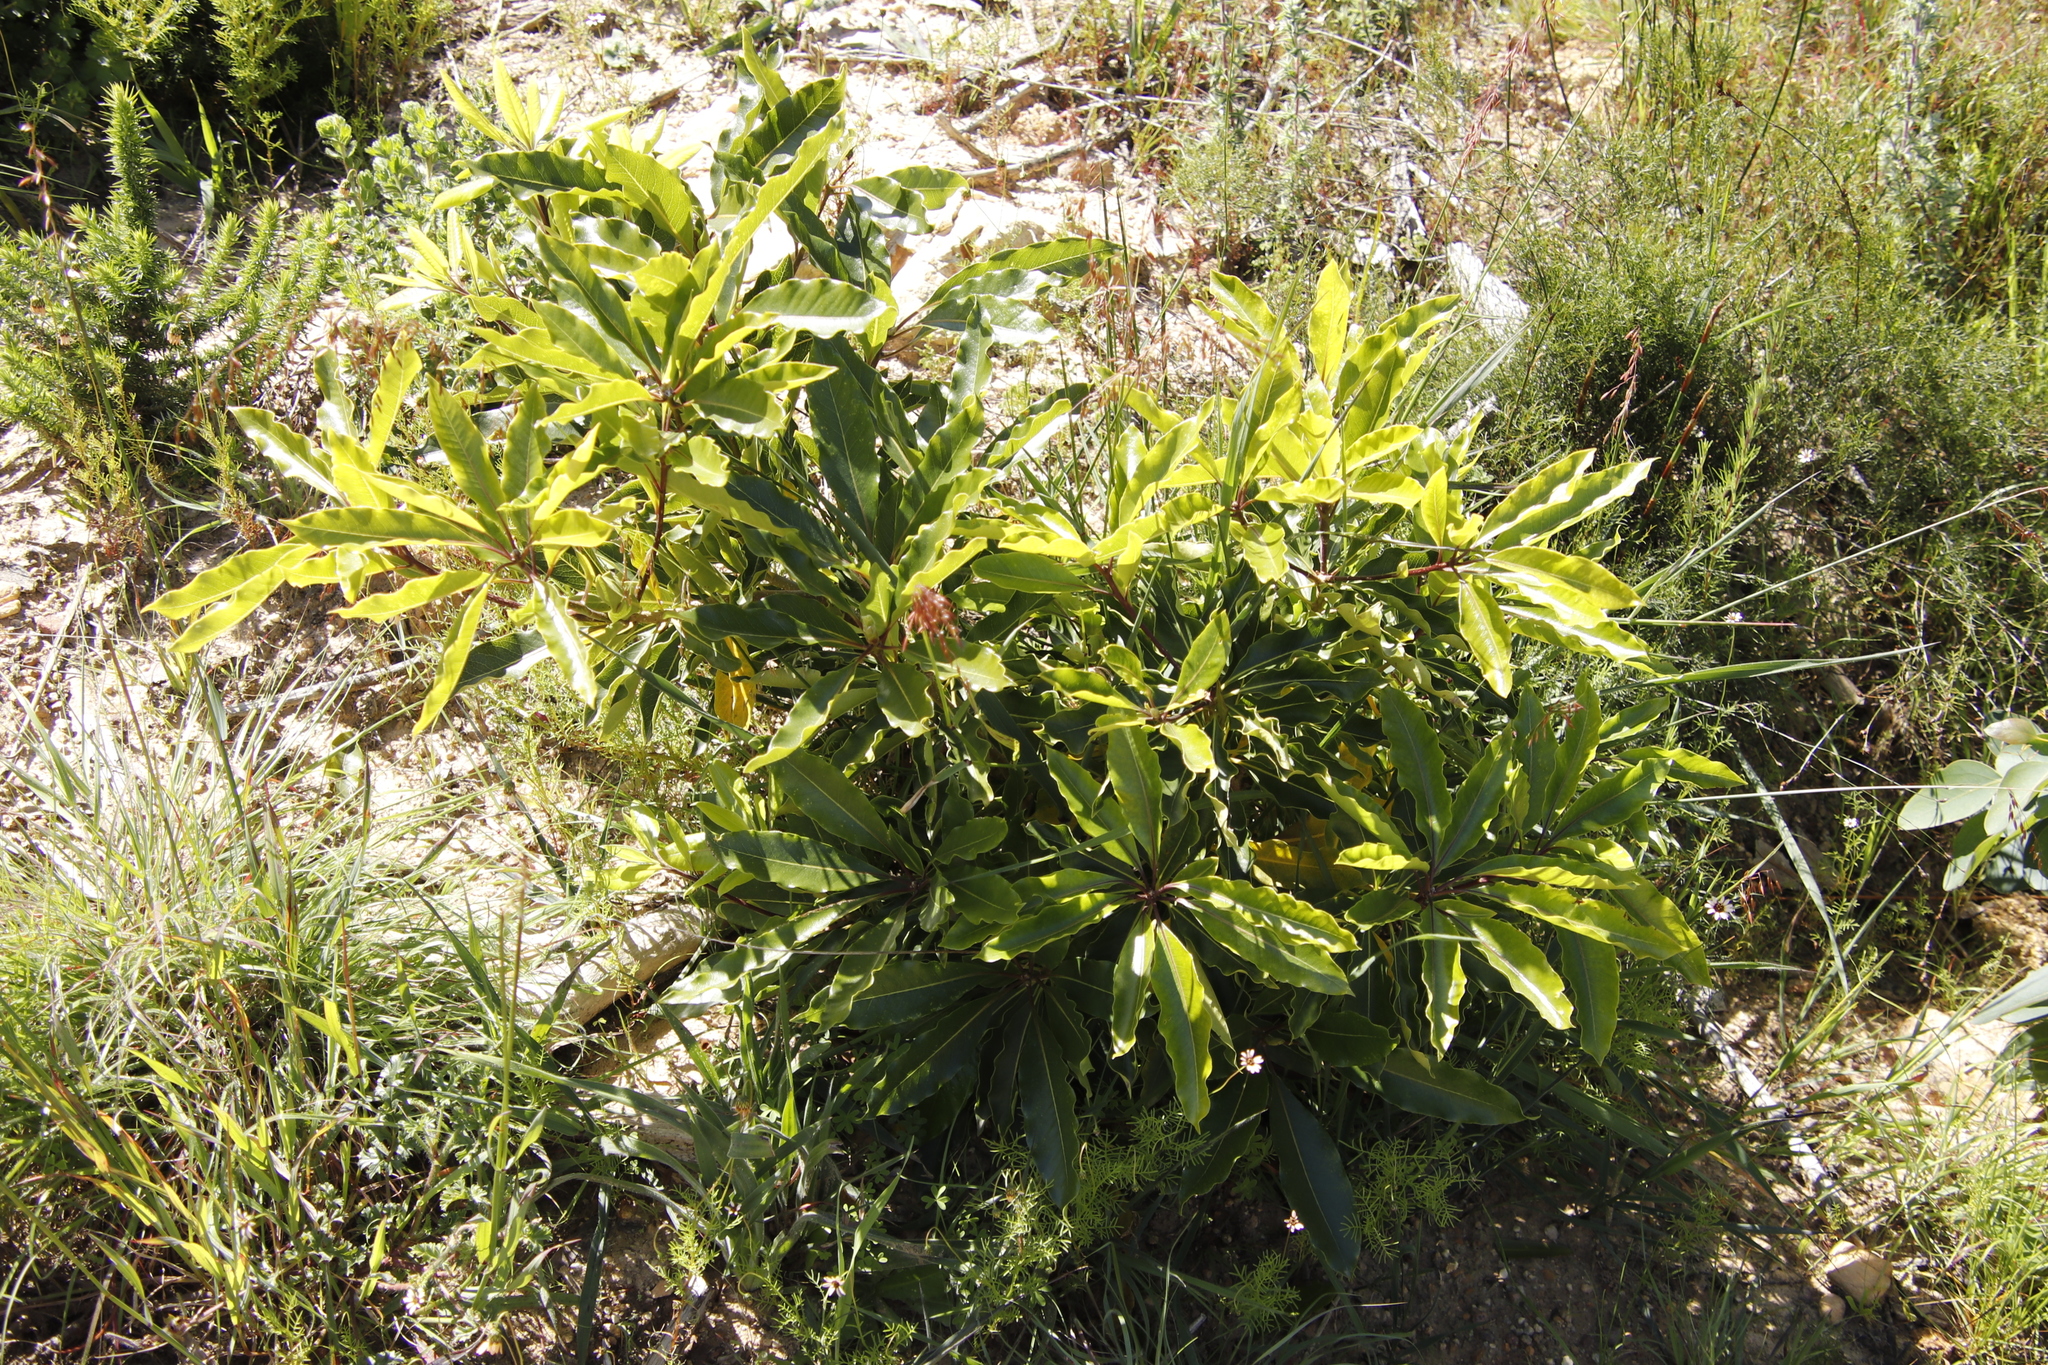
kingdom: Plantae
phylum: Tracheophyta
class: Magnoliopsida
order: Apiales
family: Pittosporaceae
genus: Pittosporum
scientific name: Pittosporum undulatum
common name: Australian cheesewood
